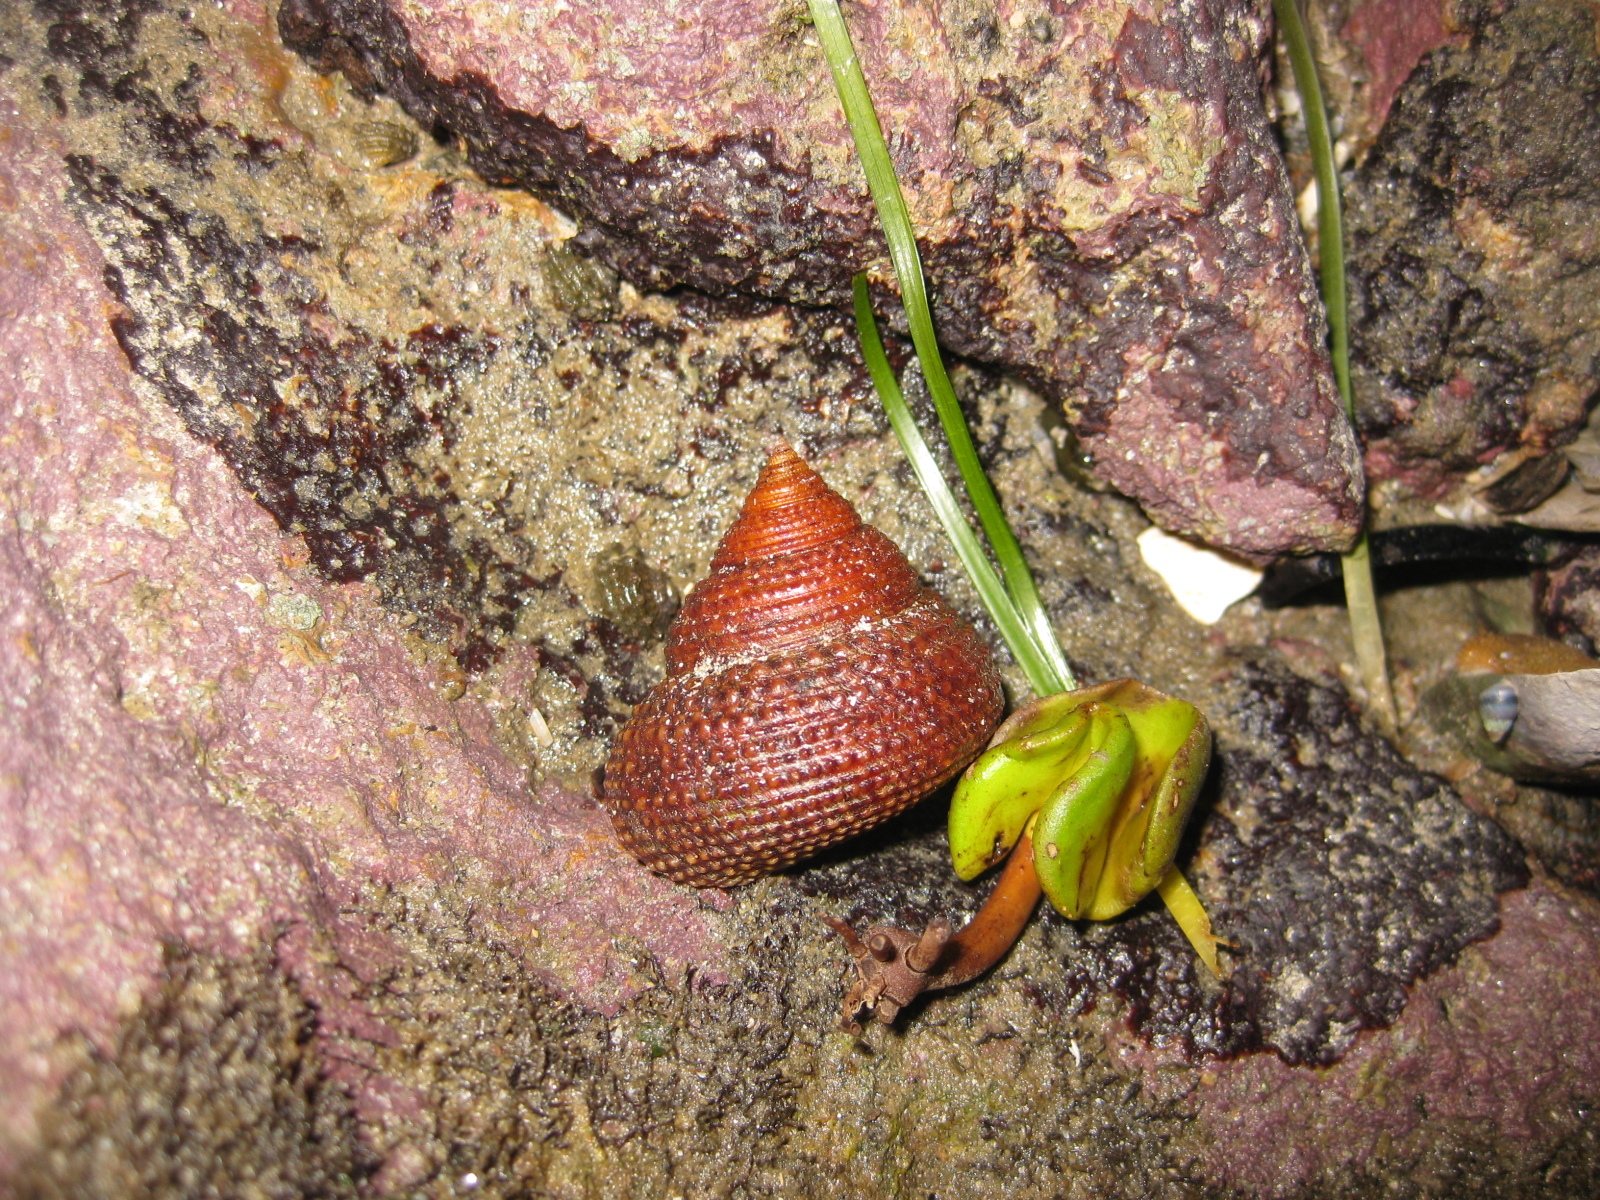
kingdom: Plantae
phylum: Tracheophyta
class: Magnoliopsida
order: Lamiales
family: Acanthaceae
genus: Avicennia
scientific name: Avicennia marina
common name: Gray mangrove
